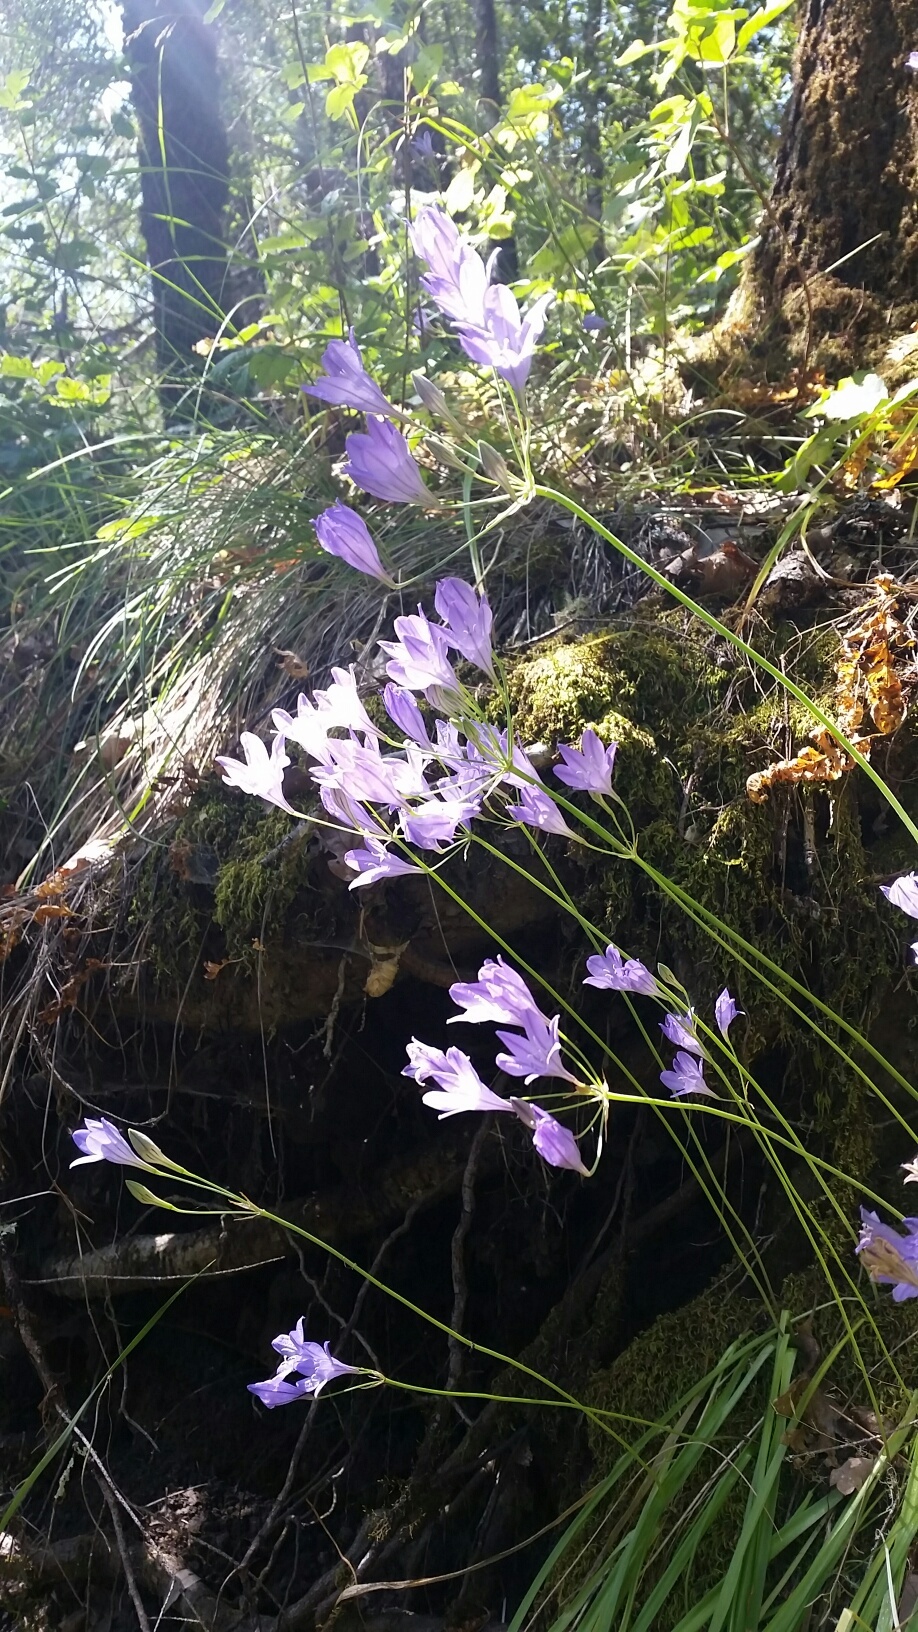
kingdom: Plantae
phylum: Tracheophyta
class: Liliopsida
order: Asparagales
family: Asparagaceae
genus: Triteleia
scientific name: Triteleia laxa
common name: Triplet-lily
